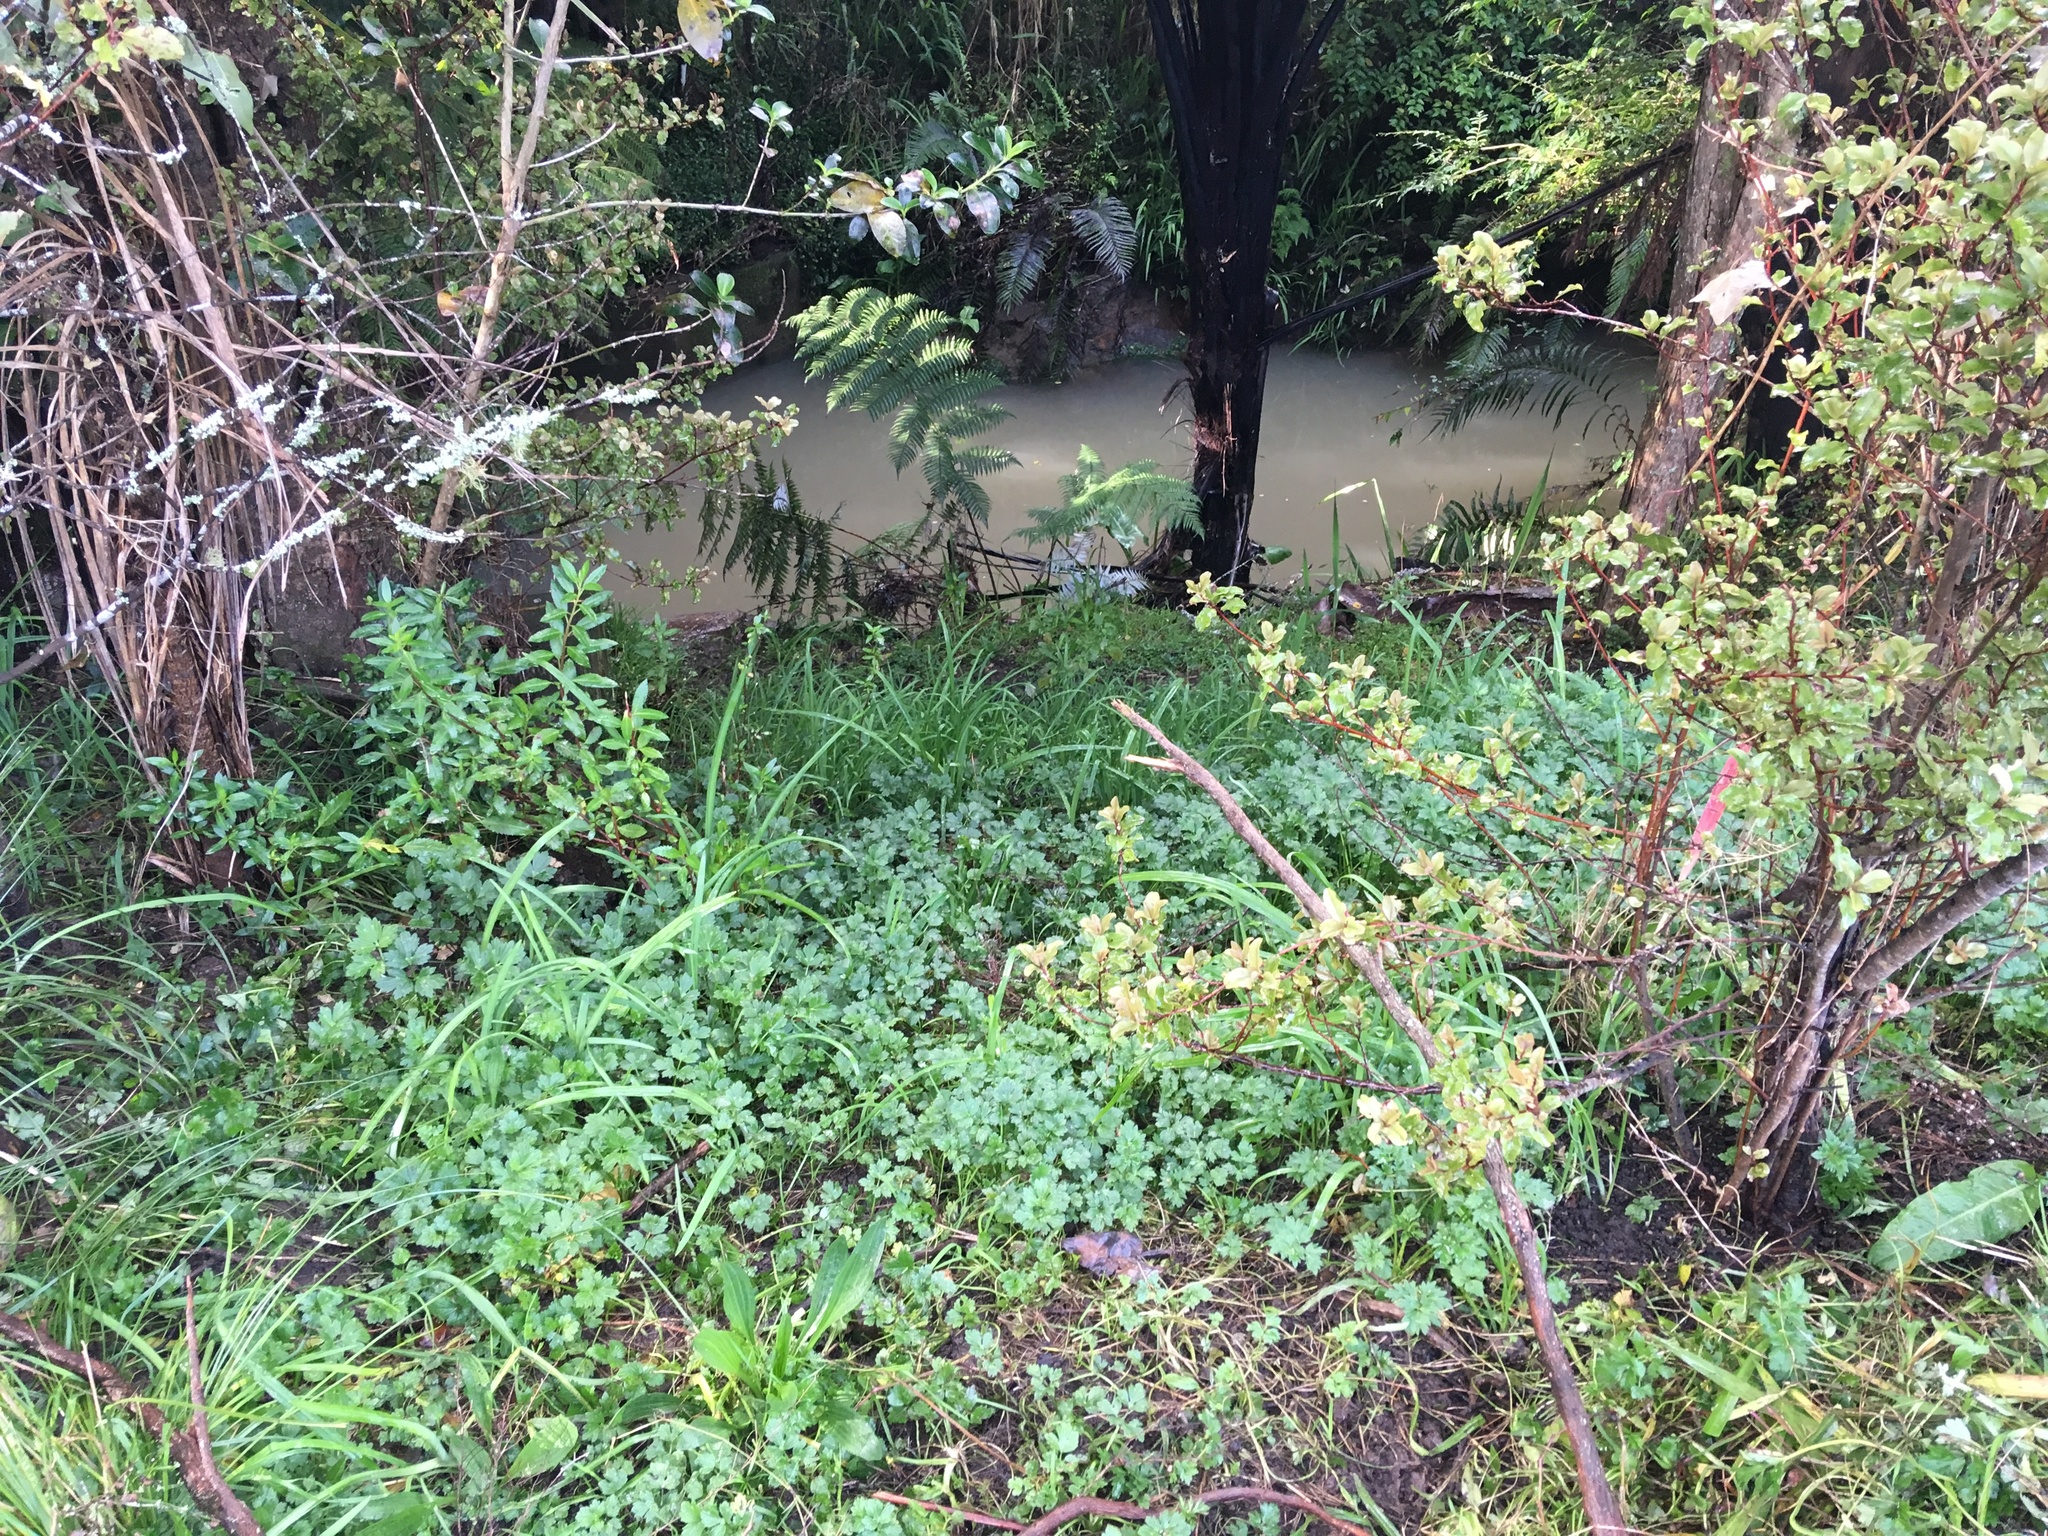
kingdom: Plantae
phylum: Tracheophyta
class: Magnoliopsida
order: Saxifragales
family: Haloragaceae
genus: Haloragis
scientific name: Haloragis erecta
